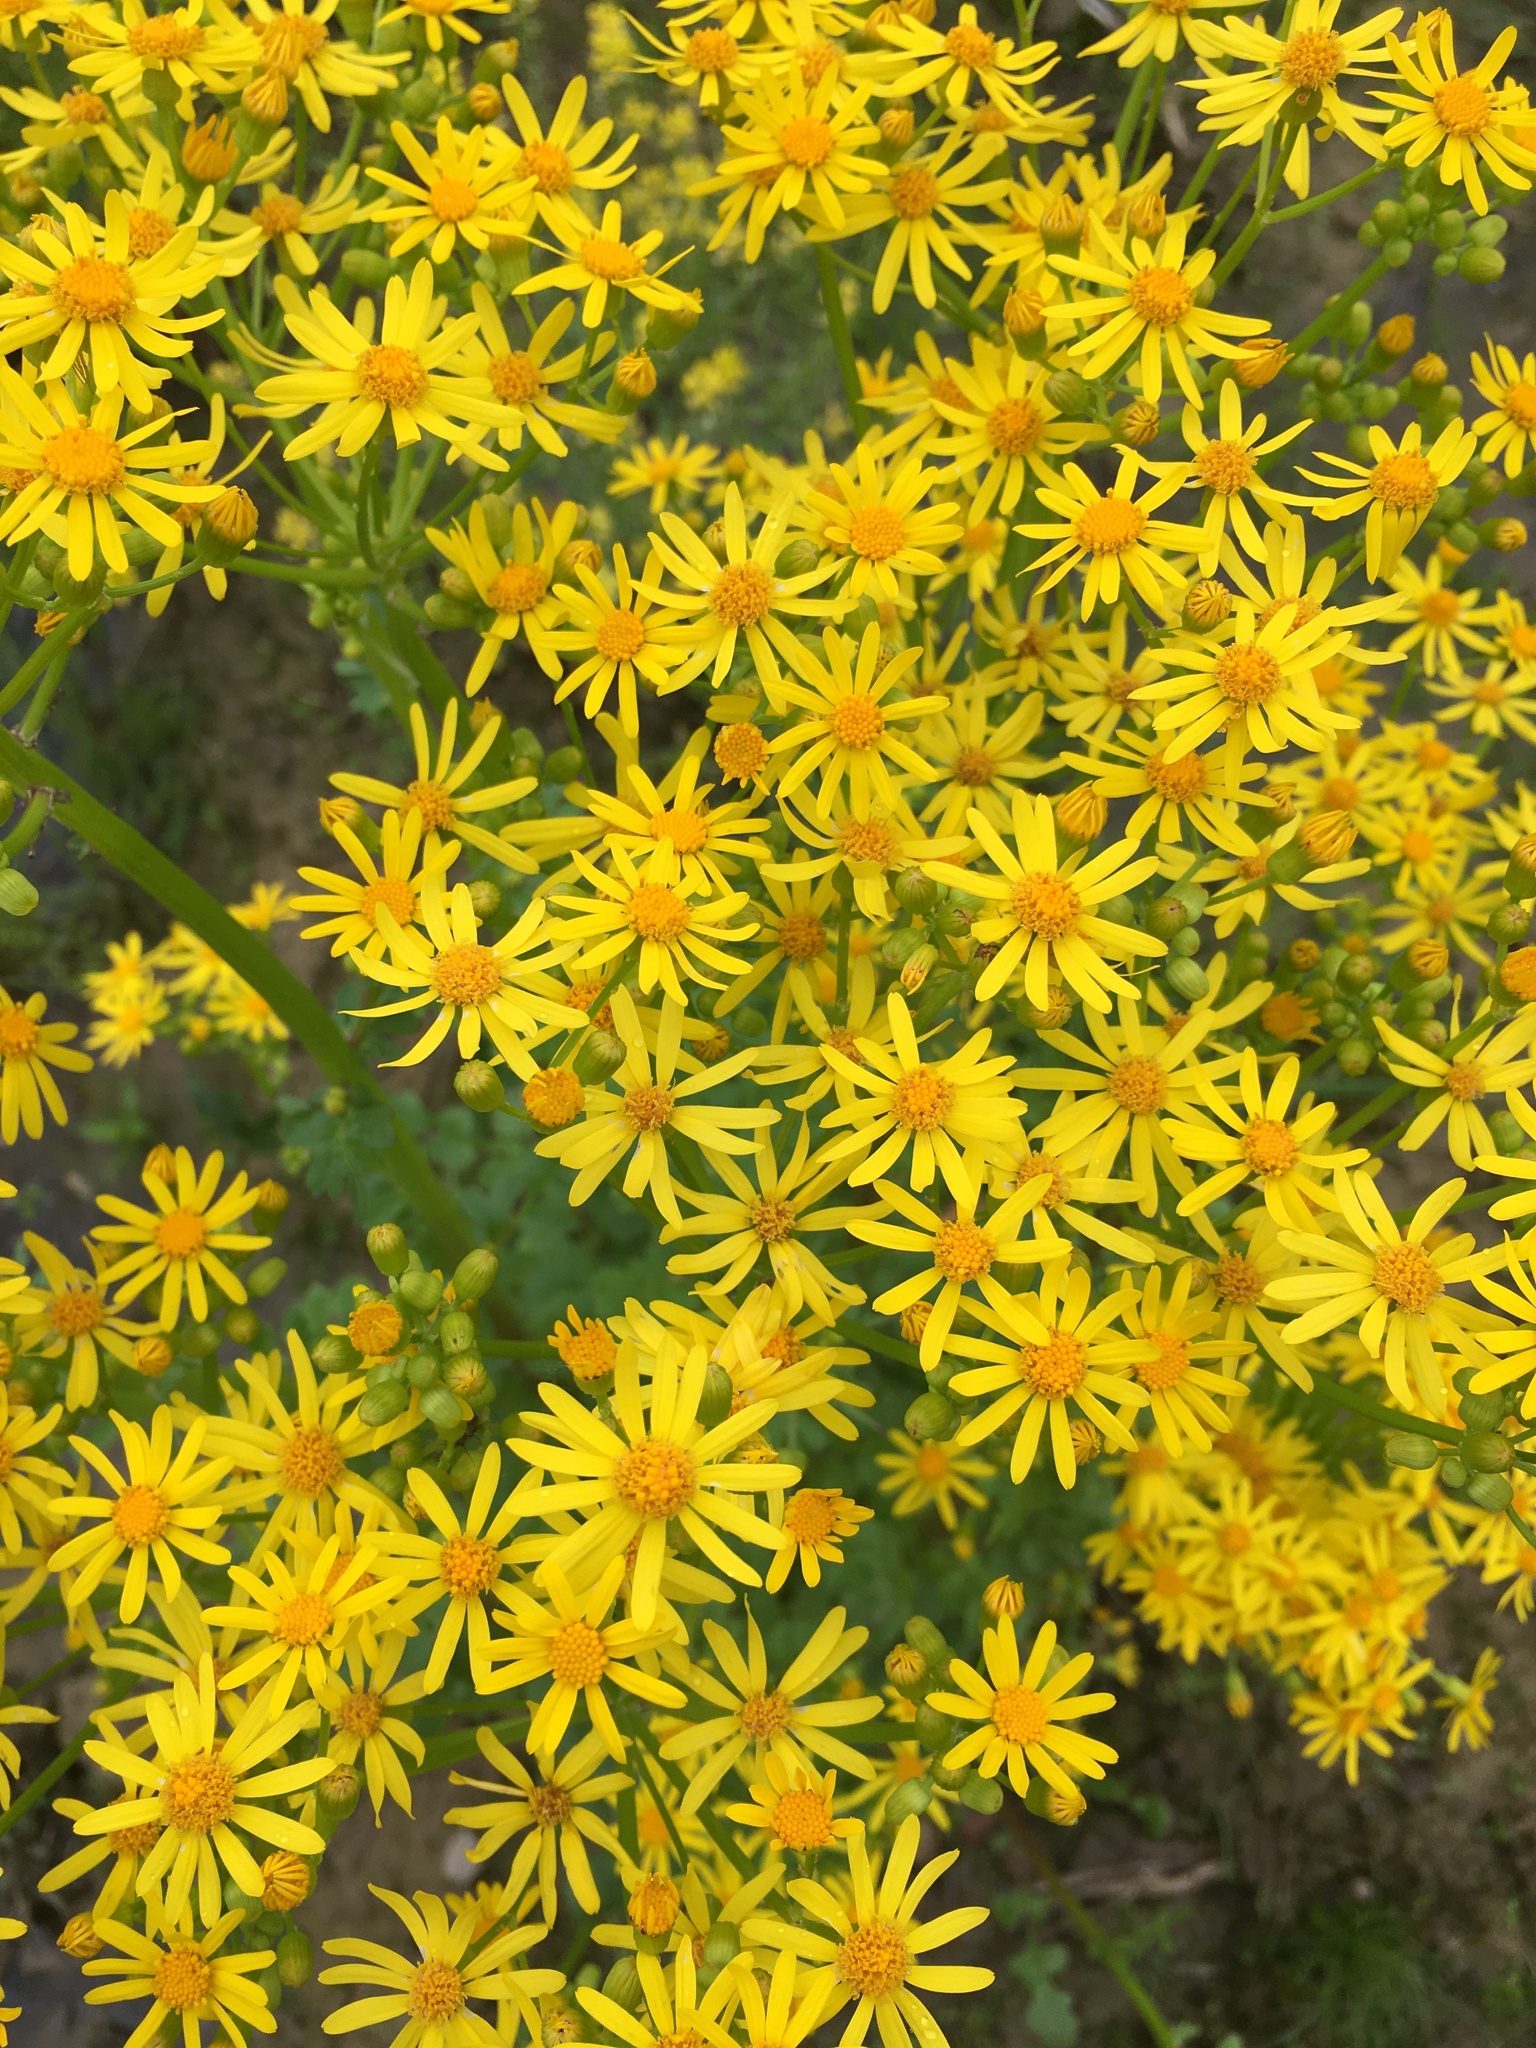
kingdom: Plantae
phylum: Tracheophyta
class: Magnoliopsida
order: Asterales
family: Asteraceae
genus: Packera
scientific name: Packera glabella
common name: Butterweed
